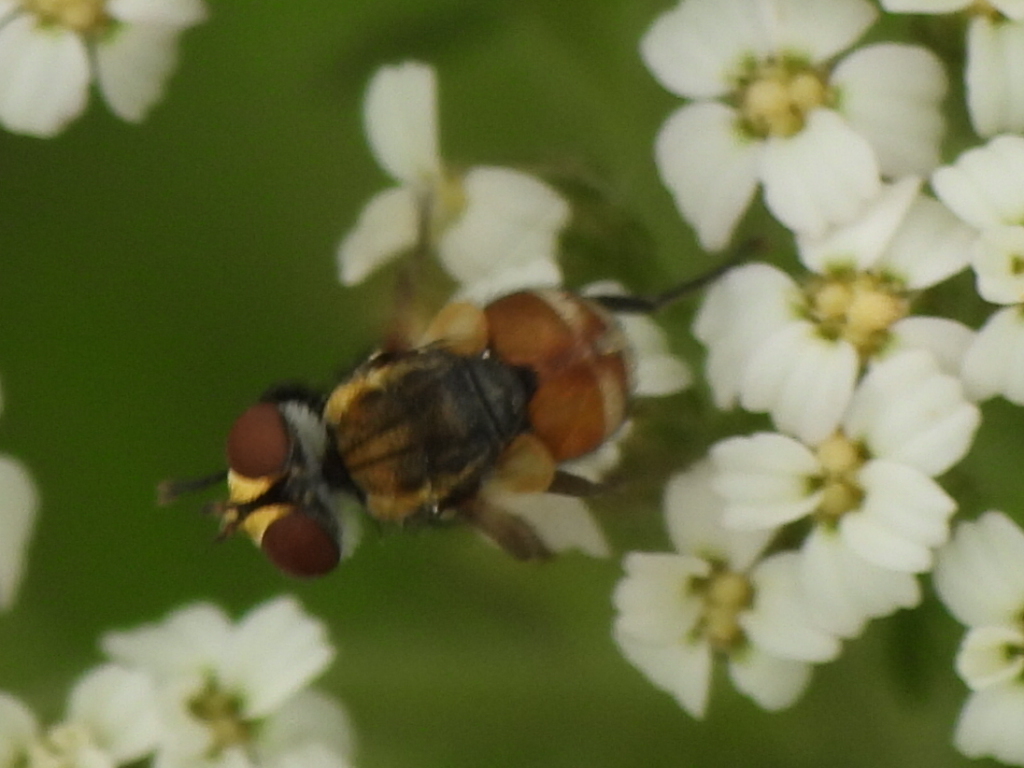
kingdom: Animalia
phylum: Arthropoda
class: Insecta
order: Diptera
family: Tachinidae
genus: Gymnoclytia
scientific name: Gymnoclytia occidua
